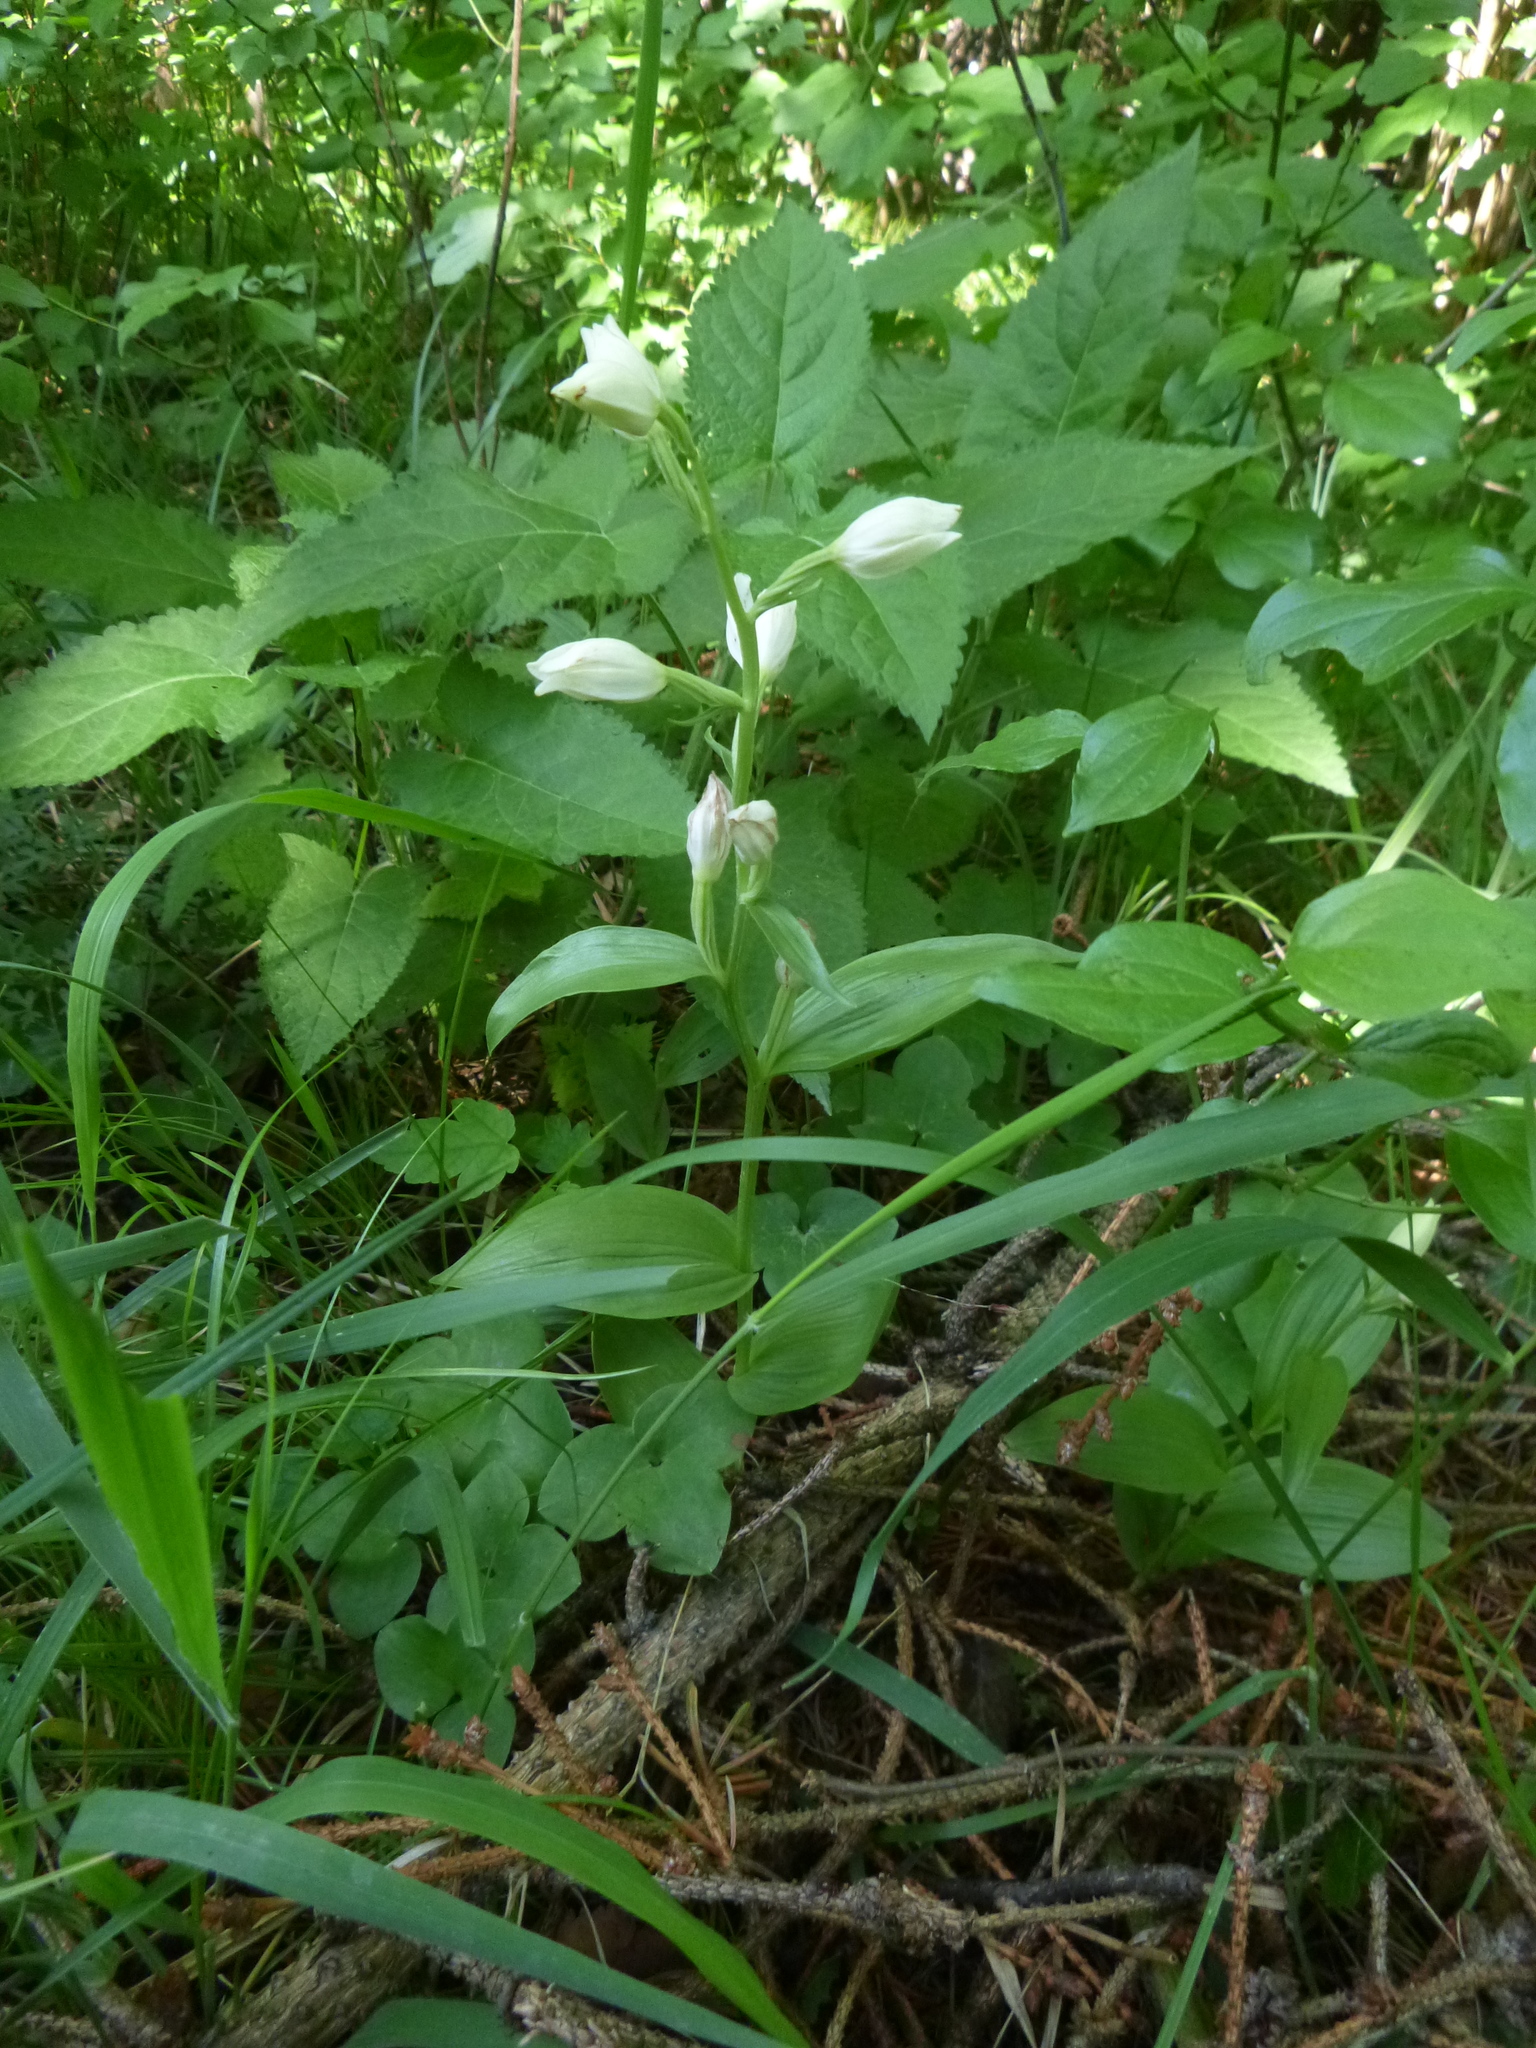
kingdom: Plantae
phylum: Tracheophyta
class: Liliopsida
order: Asparagales
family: Orchidaceae
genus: Cephalanthera
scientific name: Cephalanthera damasonium
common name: White helleborine
